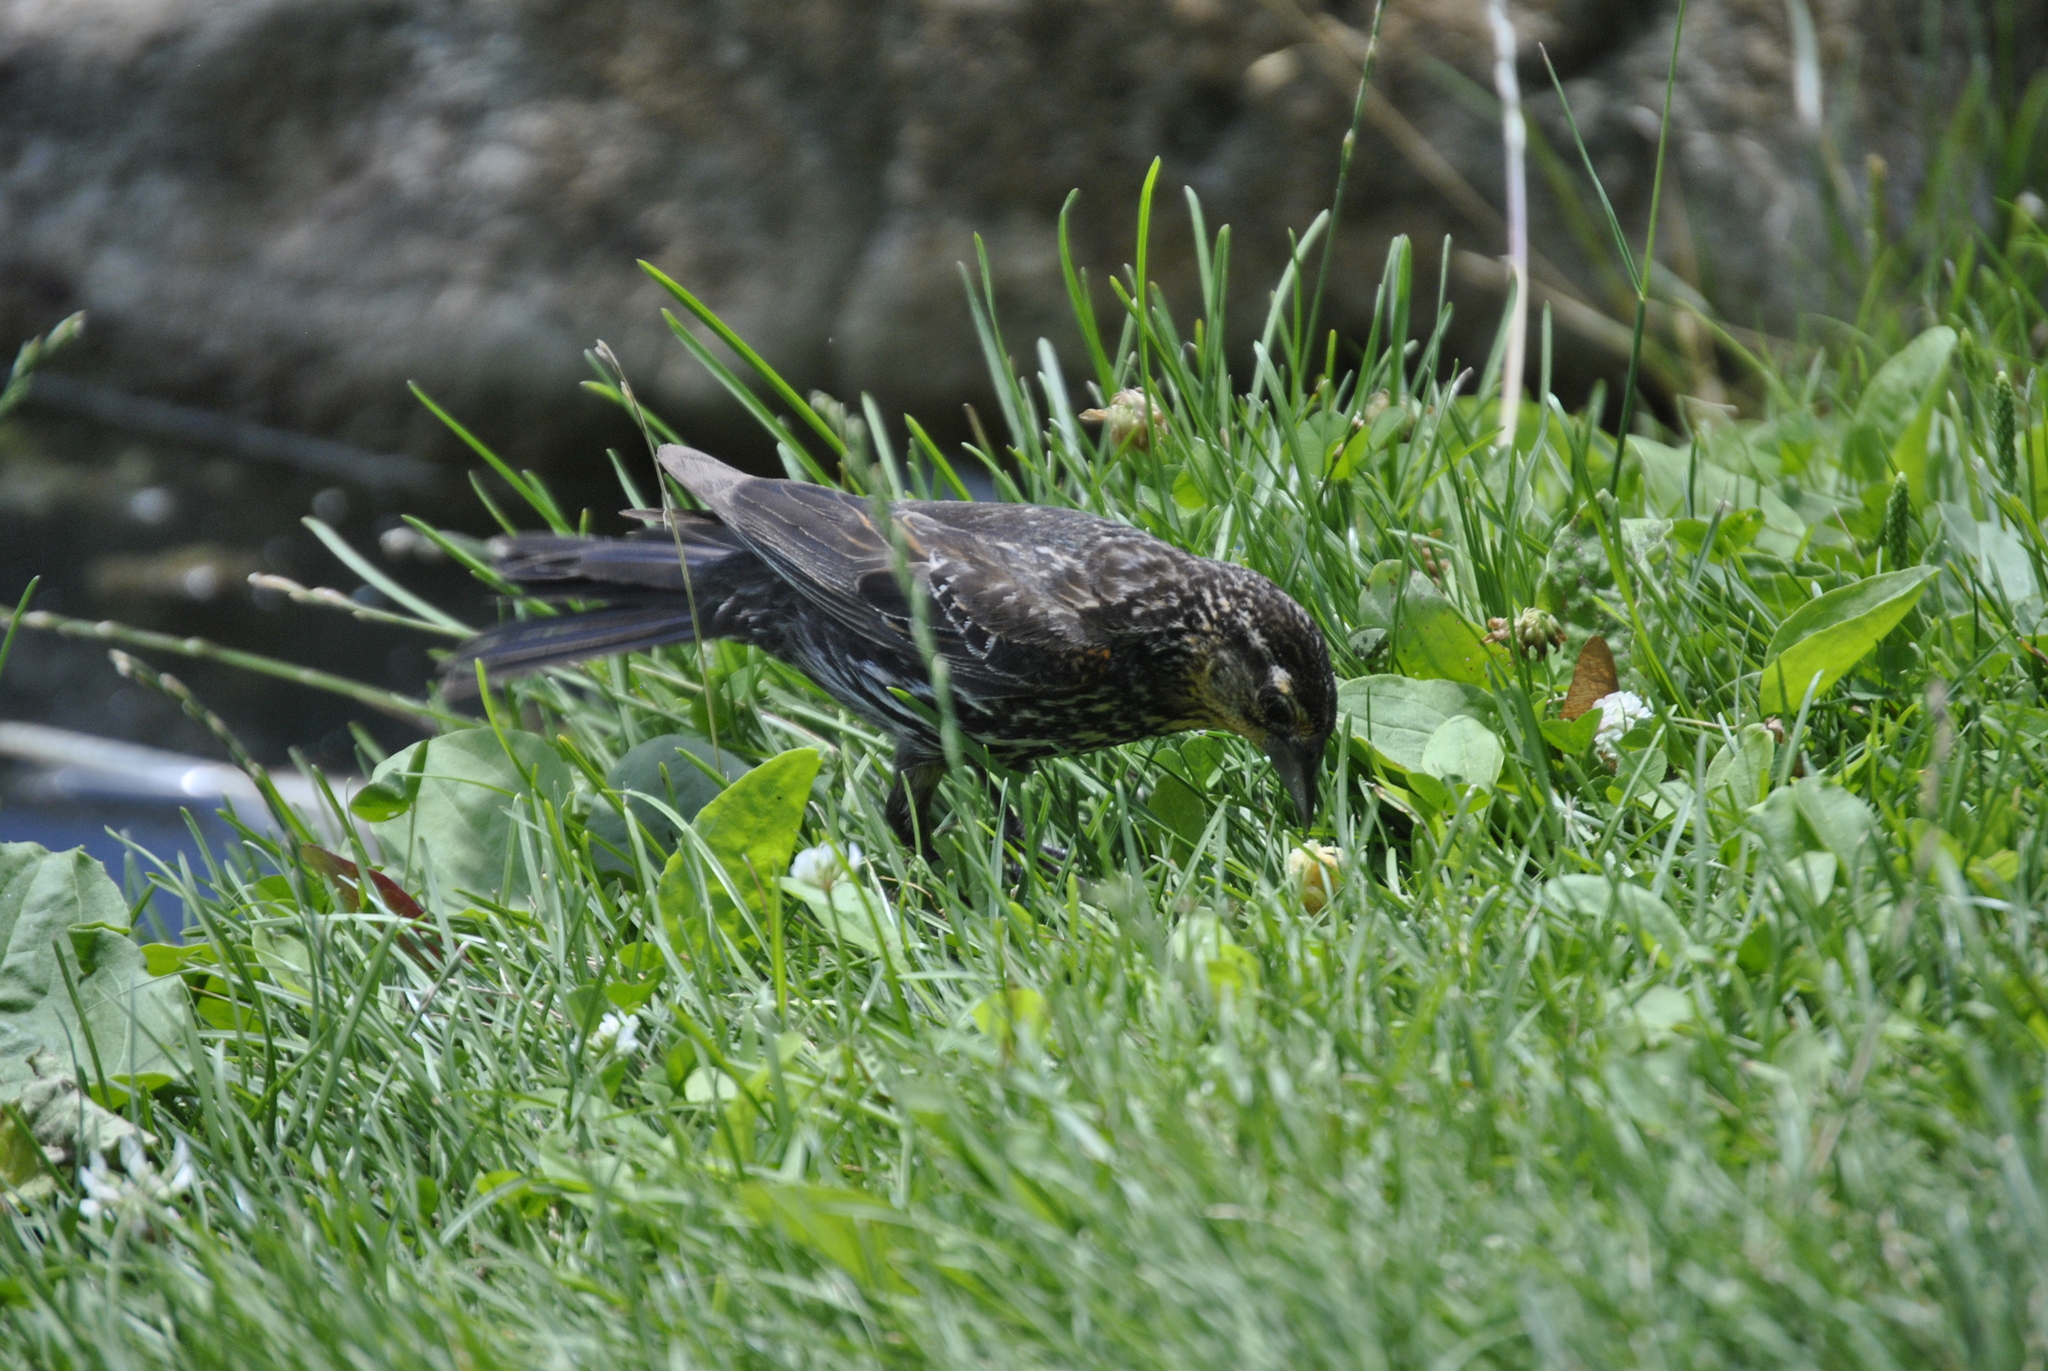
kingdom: Animalia
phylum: Chordata
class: Aves
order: Passeriformes
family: Icteridae
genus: Agelaius
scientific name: Agelaius phoeniceus
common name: Red-winged blackbird
